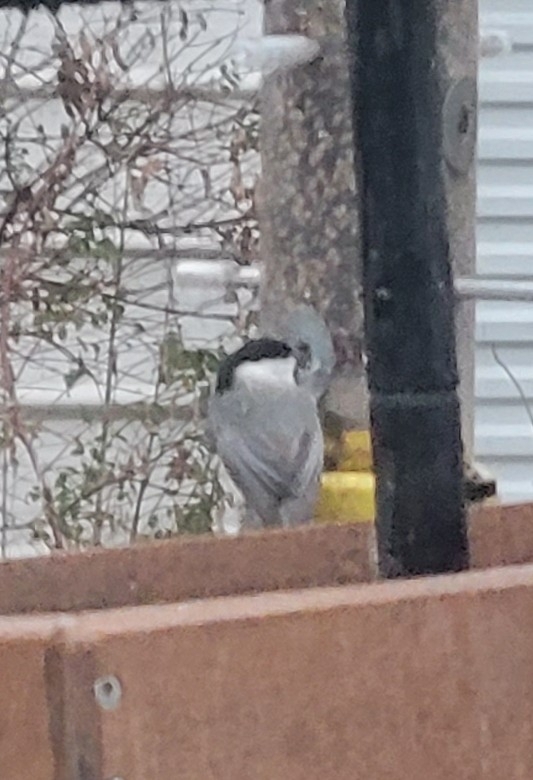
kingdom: Animalia
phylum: Chordata
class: Aves
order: Passeriformes
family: Paridae
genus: Poecile
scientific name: Poecile carolinensis
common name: Carolina chickadee
